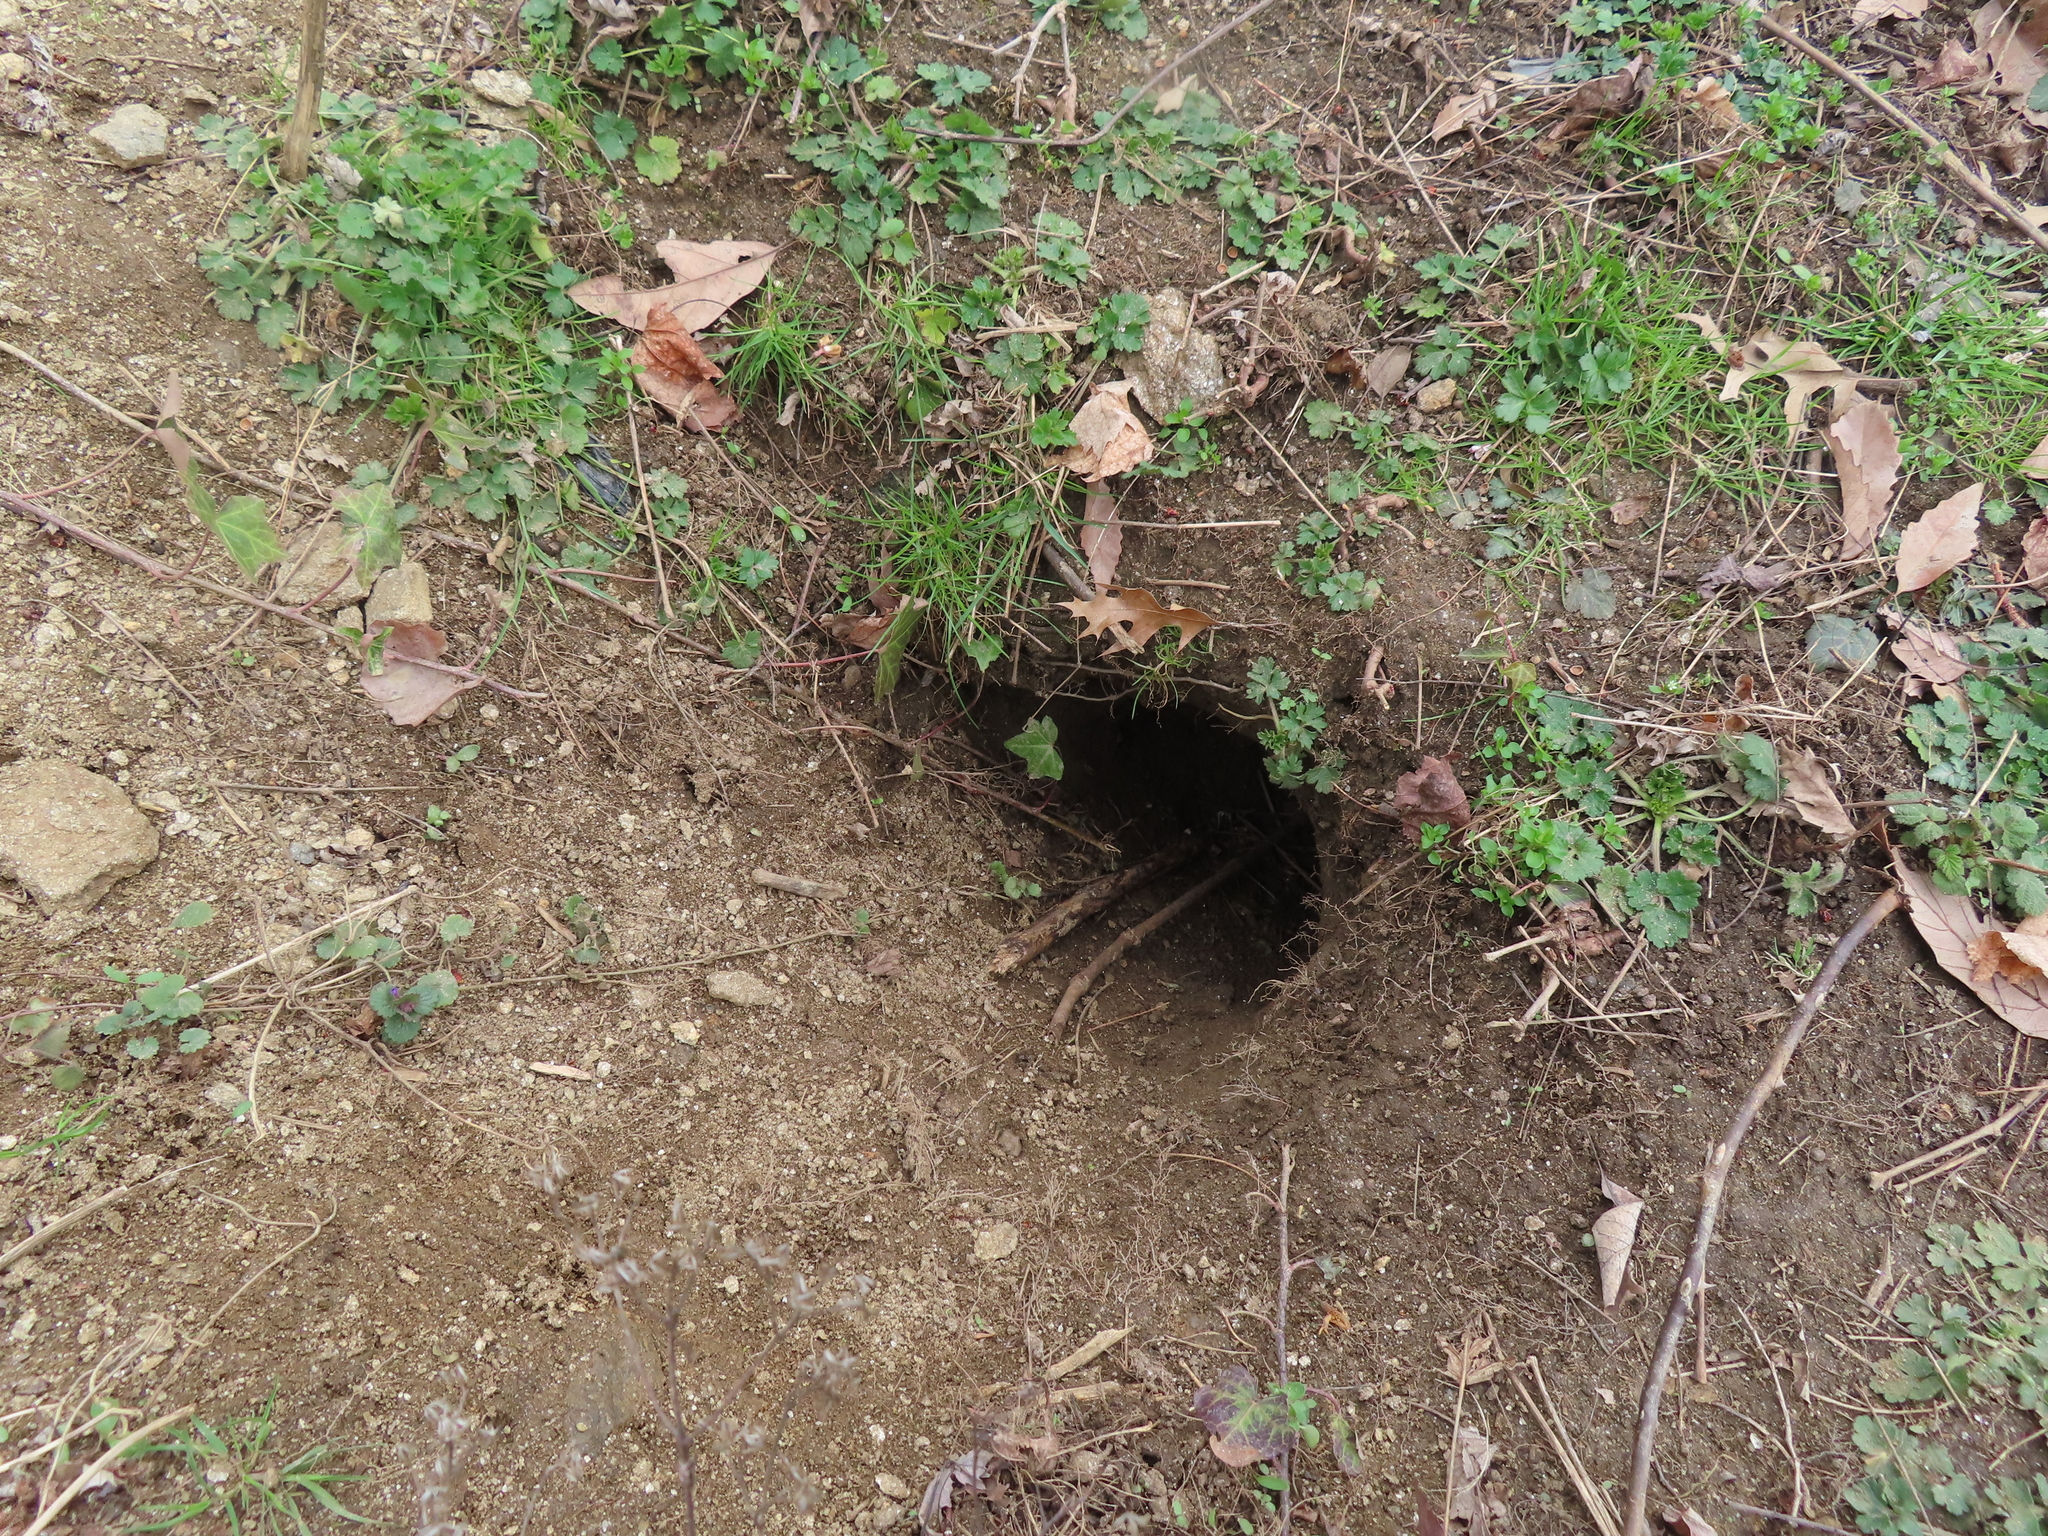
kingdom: Animalia
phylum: Chordata
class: Mammalia
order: Rodentia
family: Sciuridae
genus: Marmota
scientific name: Marmota monax
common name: Groundhog
